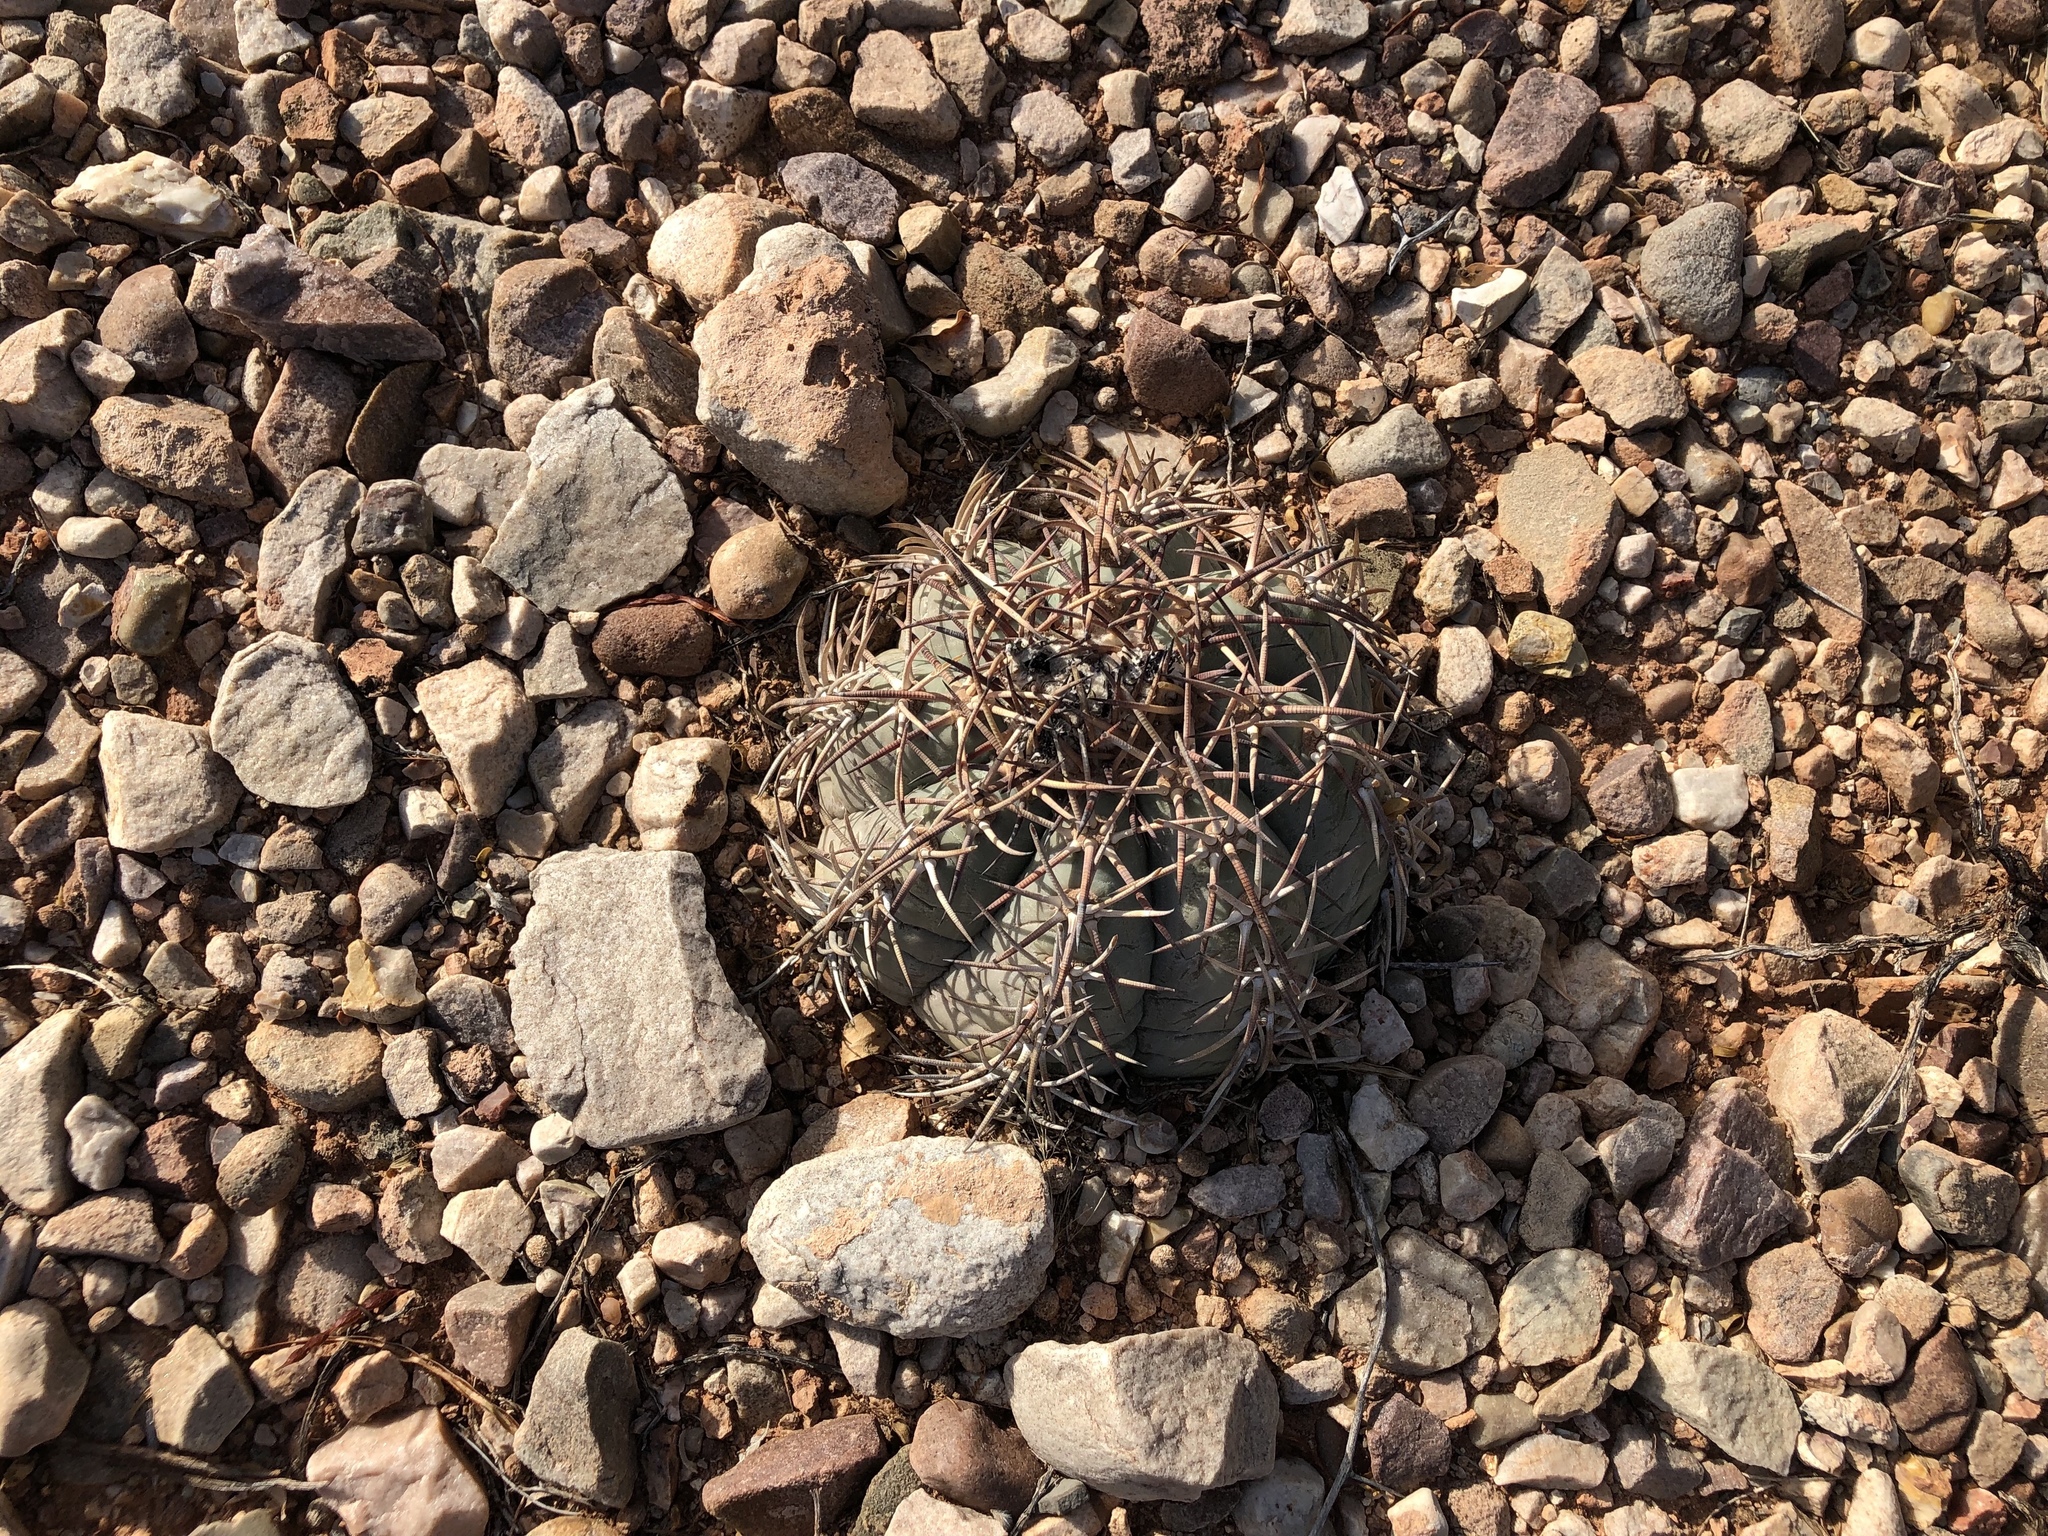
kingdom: Plantae
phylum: Tracheophyta
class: Magnoliopsida
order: Caryophyllales
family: Cactaceae
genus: Echinocactus
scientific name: Echinocactus horizonthalonius
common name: Devilshead
